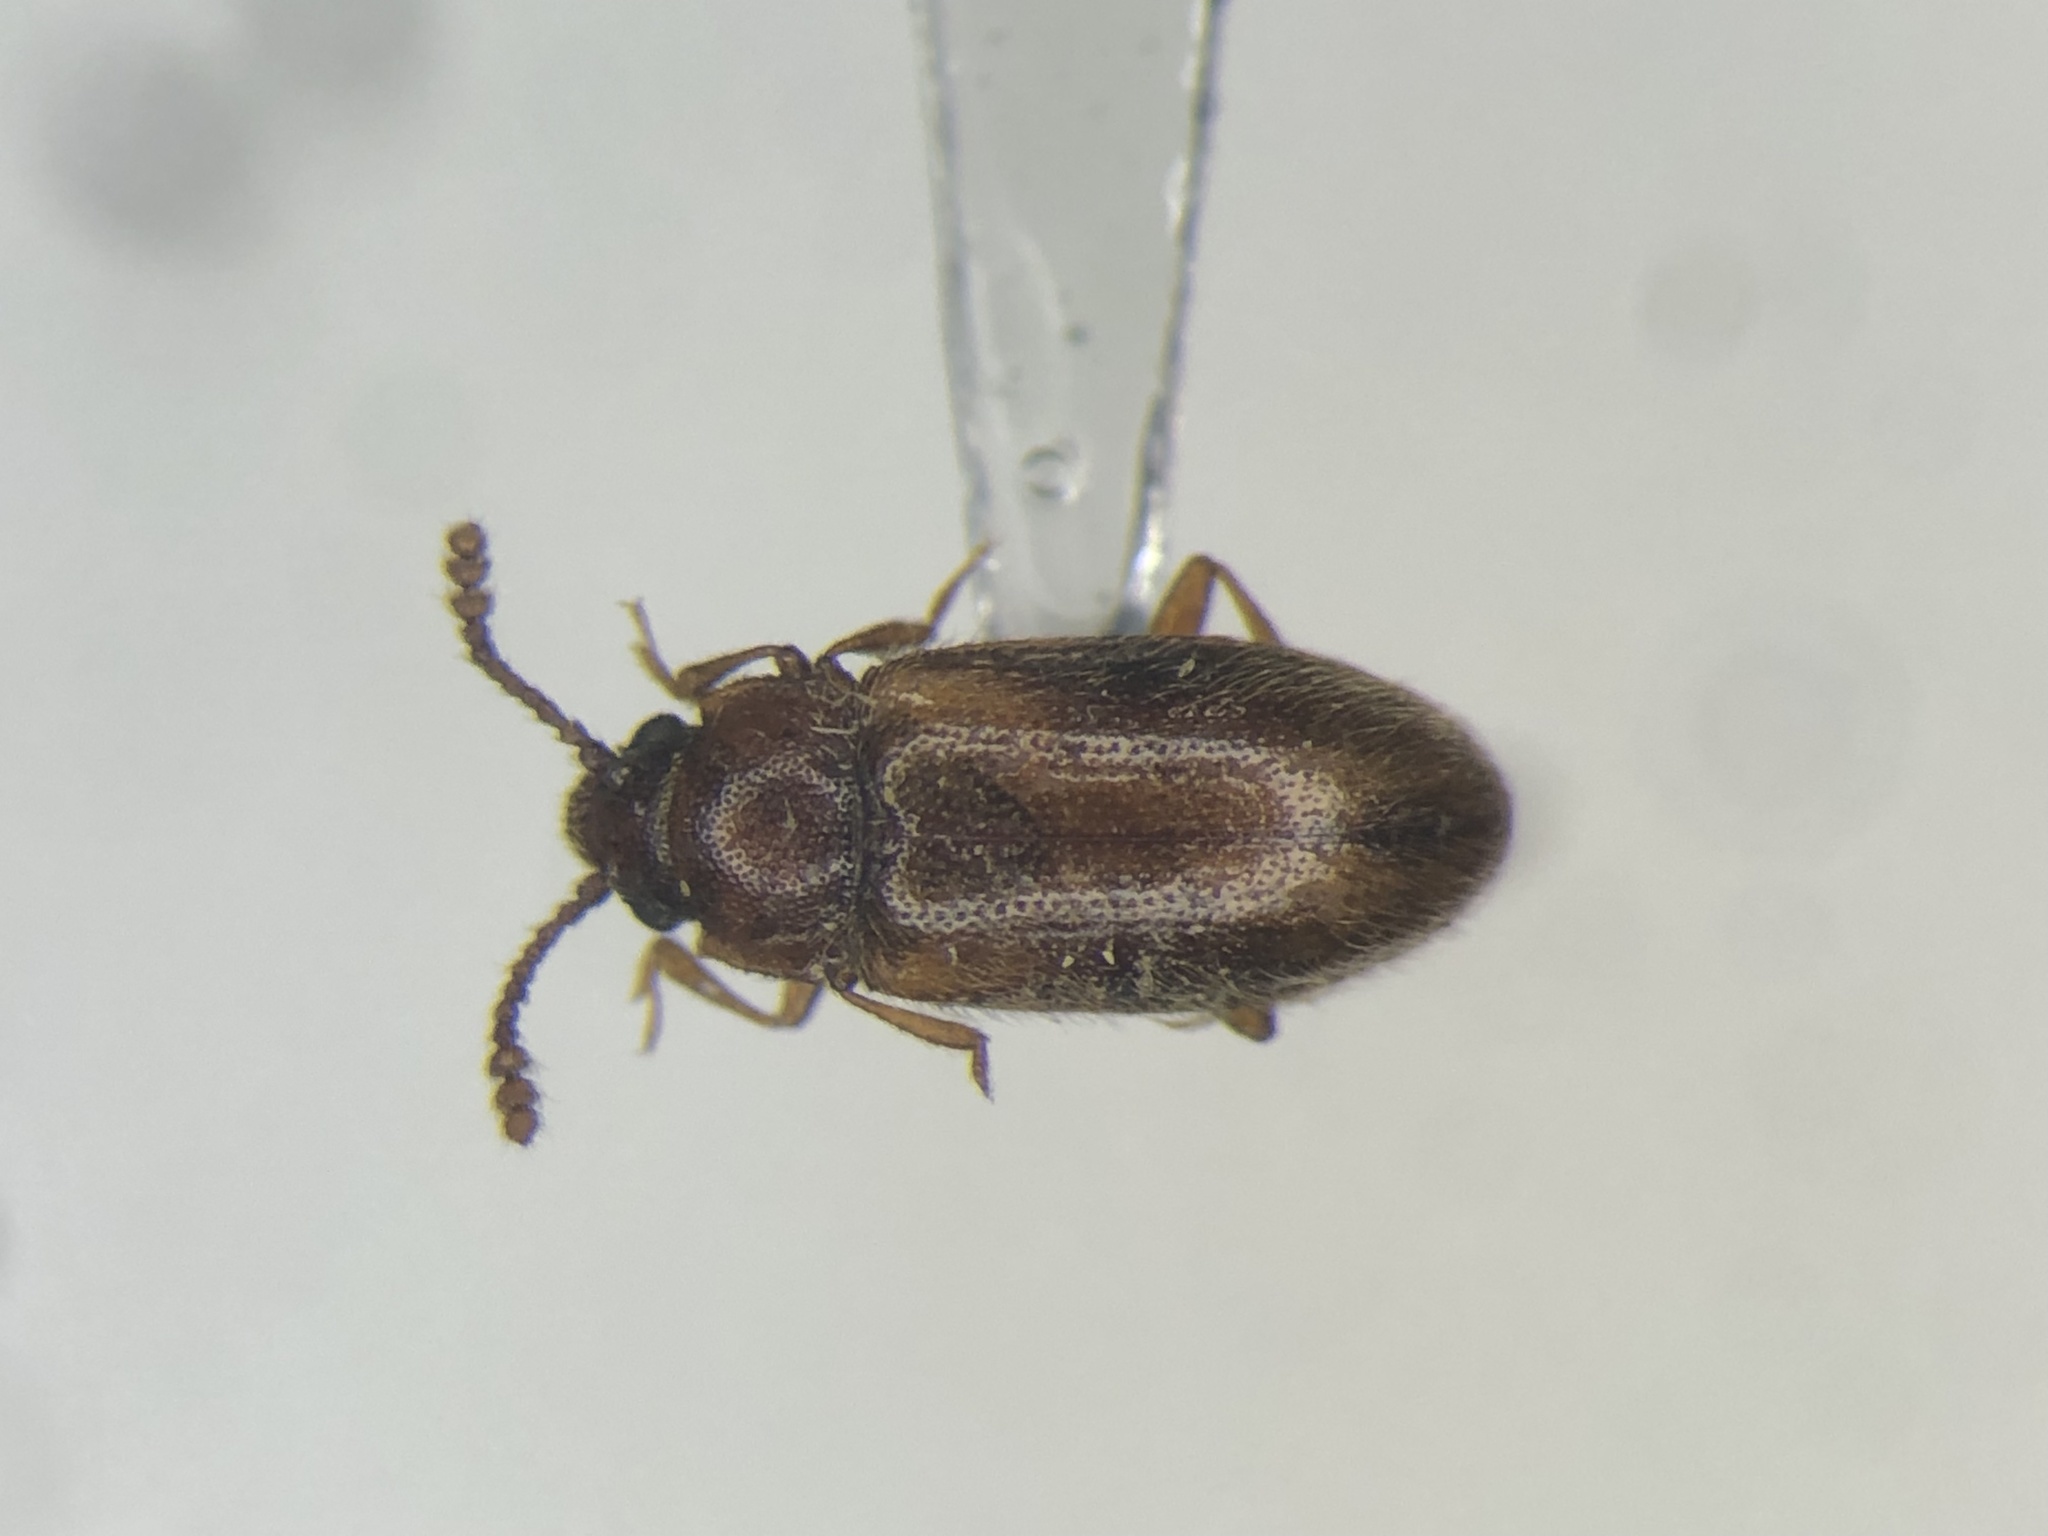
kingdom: Animalia
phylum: Arthropoda
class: Insecta
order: Coleoptera
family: Erotylidae
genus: Cryptophilus
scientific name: Cryptophilus obliteratus
